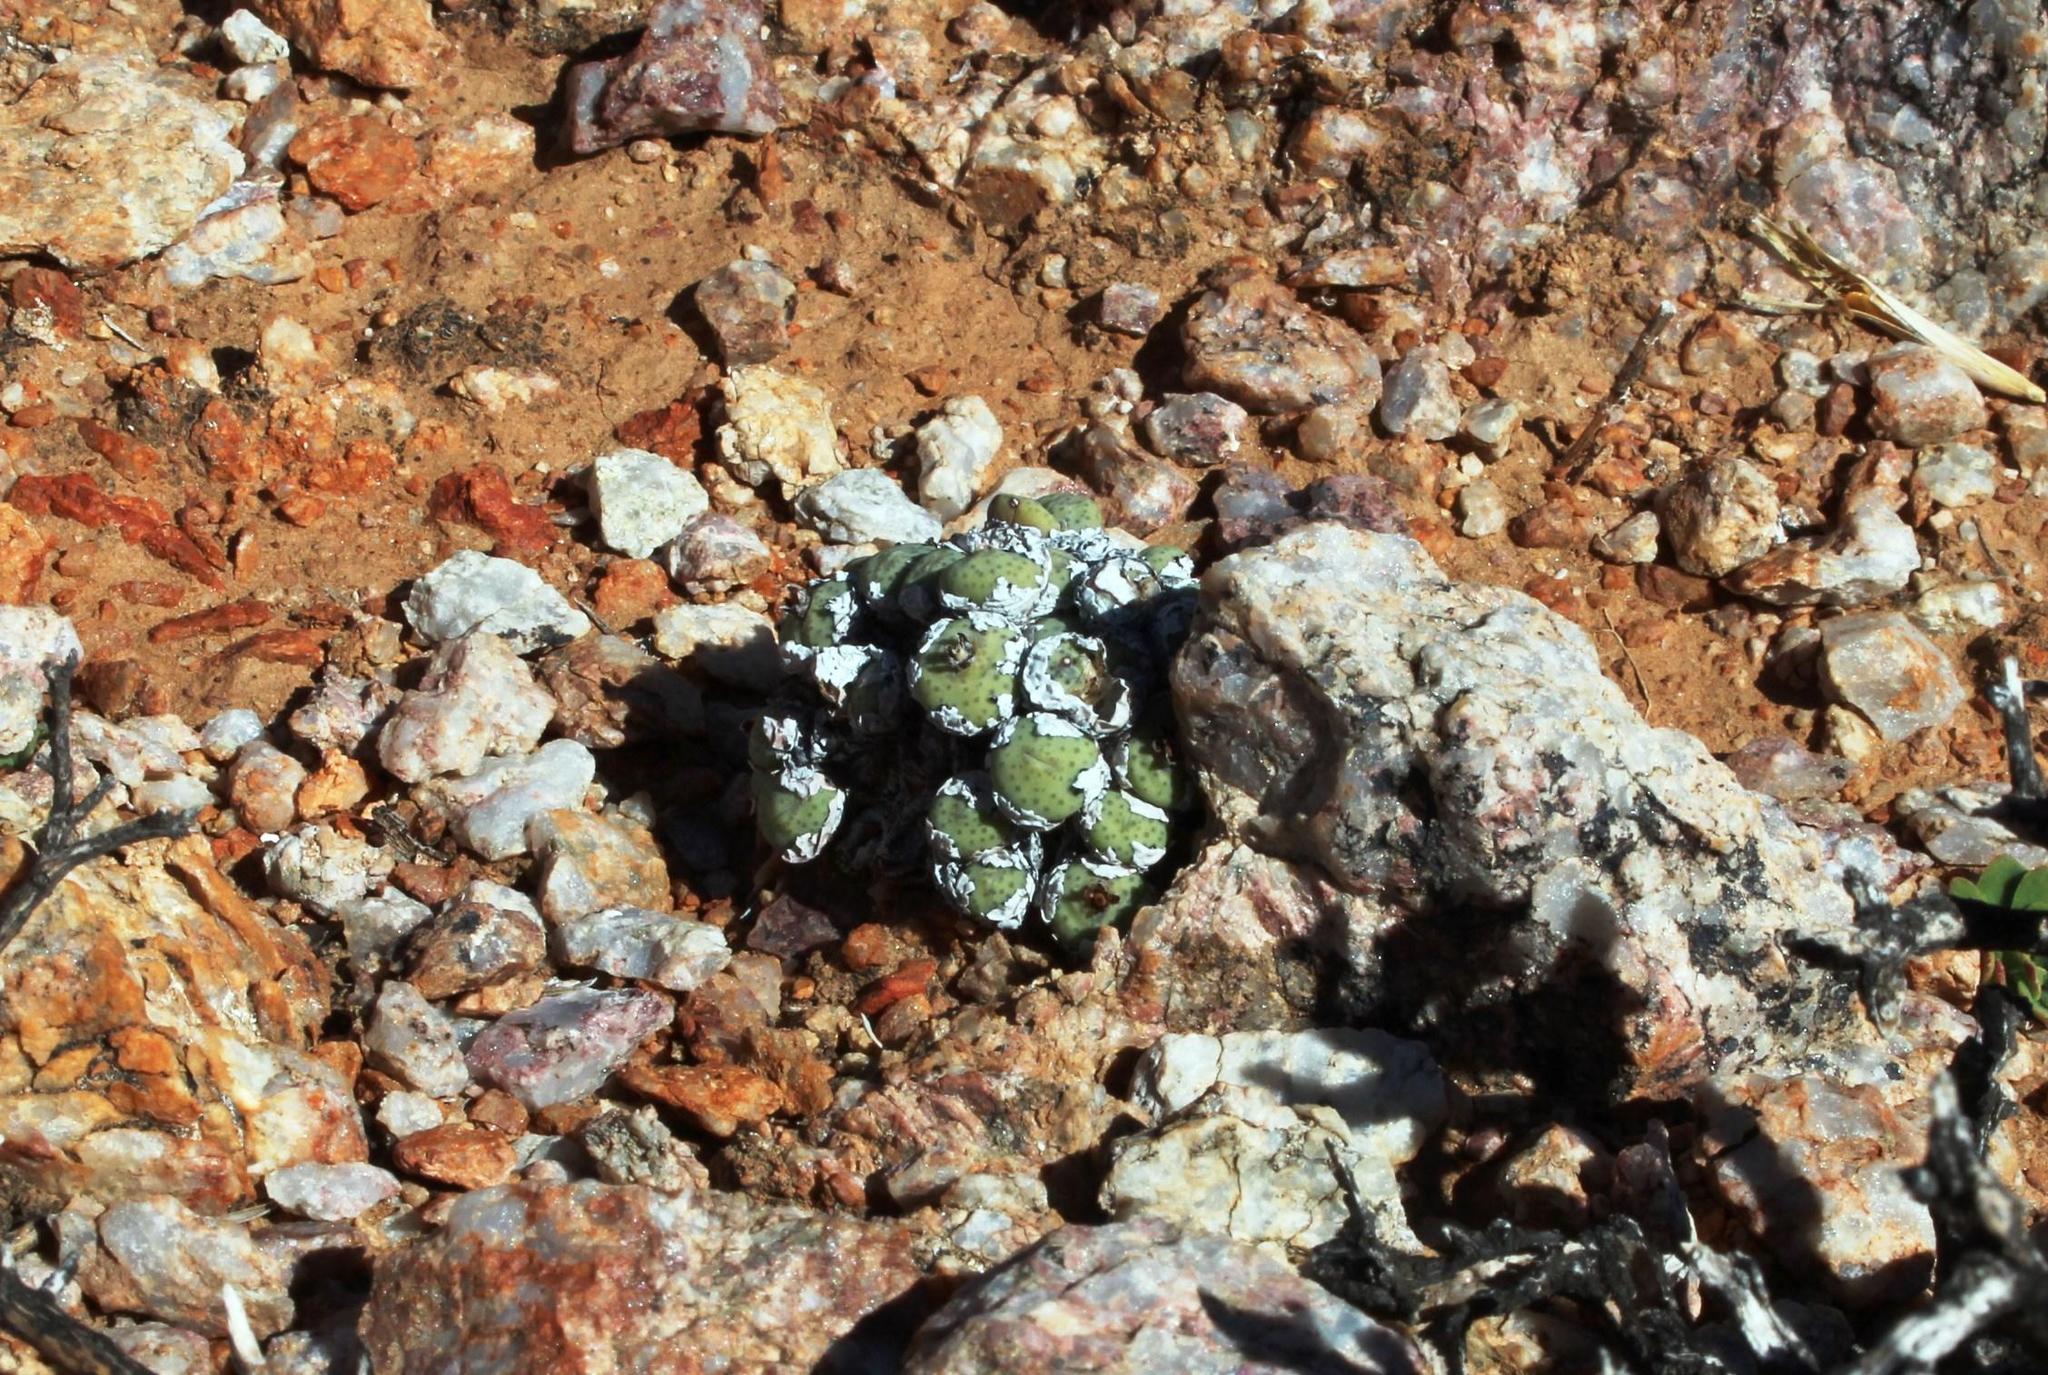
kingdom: Plantae
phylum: Tracheophyta
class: Magnoliopsida
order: Caryophyllales
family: Aizoaceae
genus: Conophytum
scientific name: Conophytum wettsteinii
